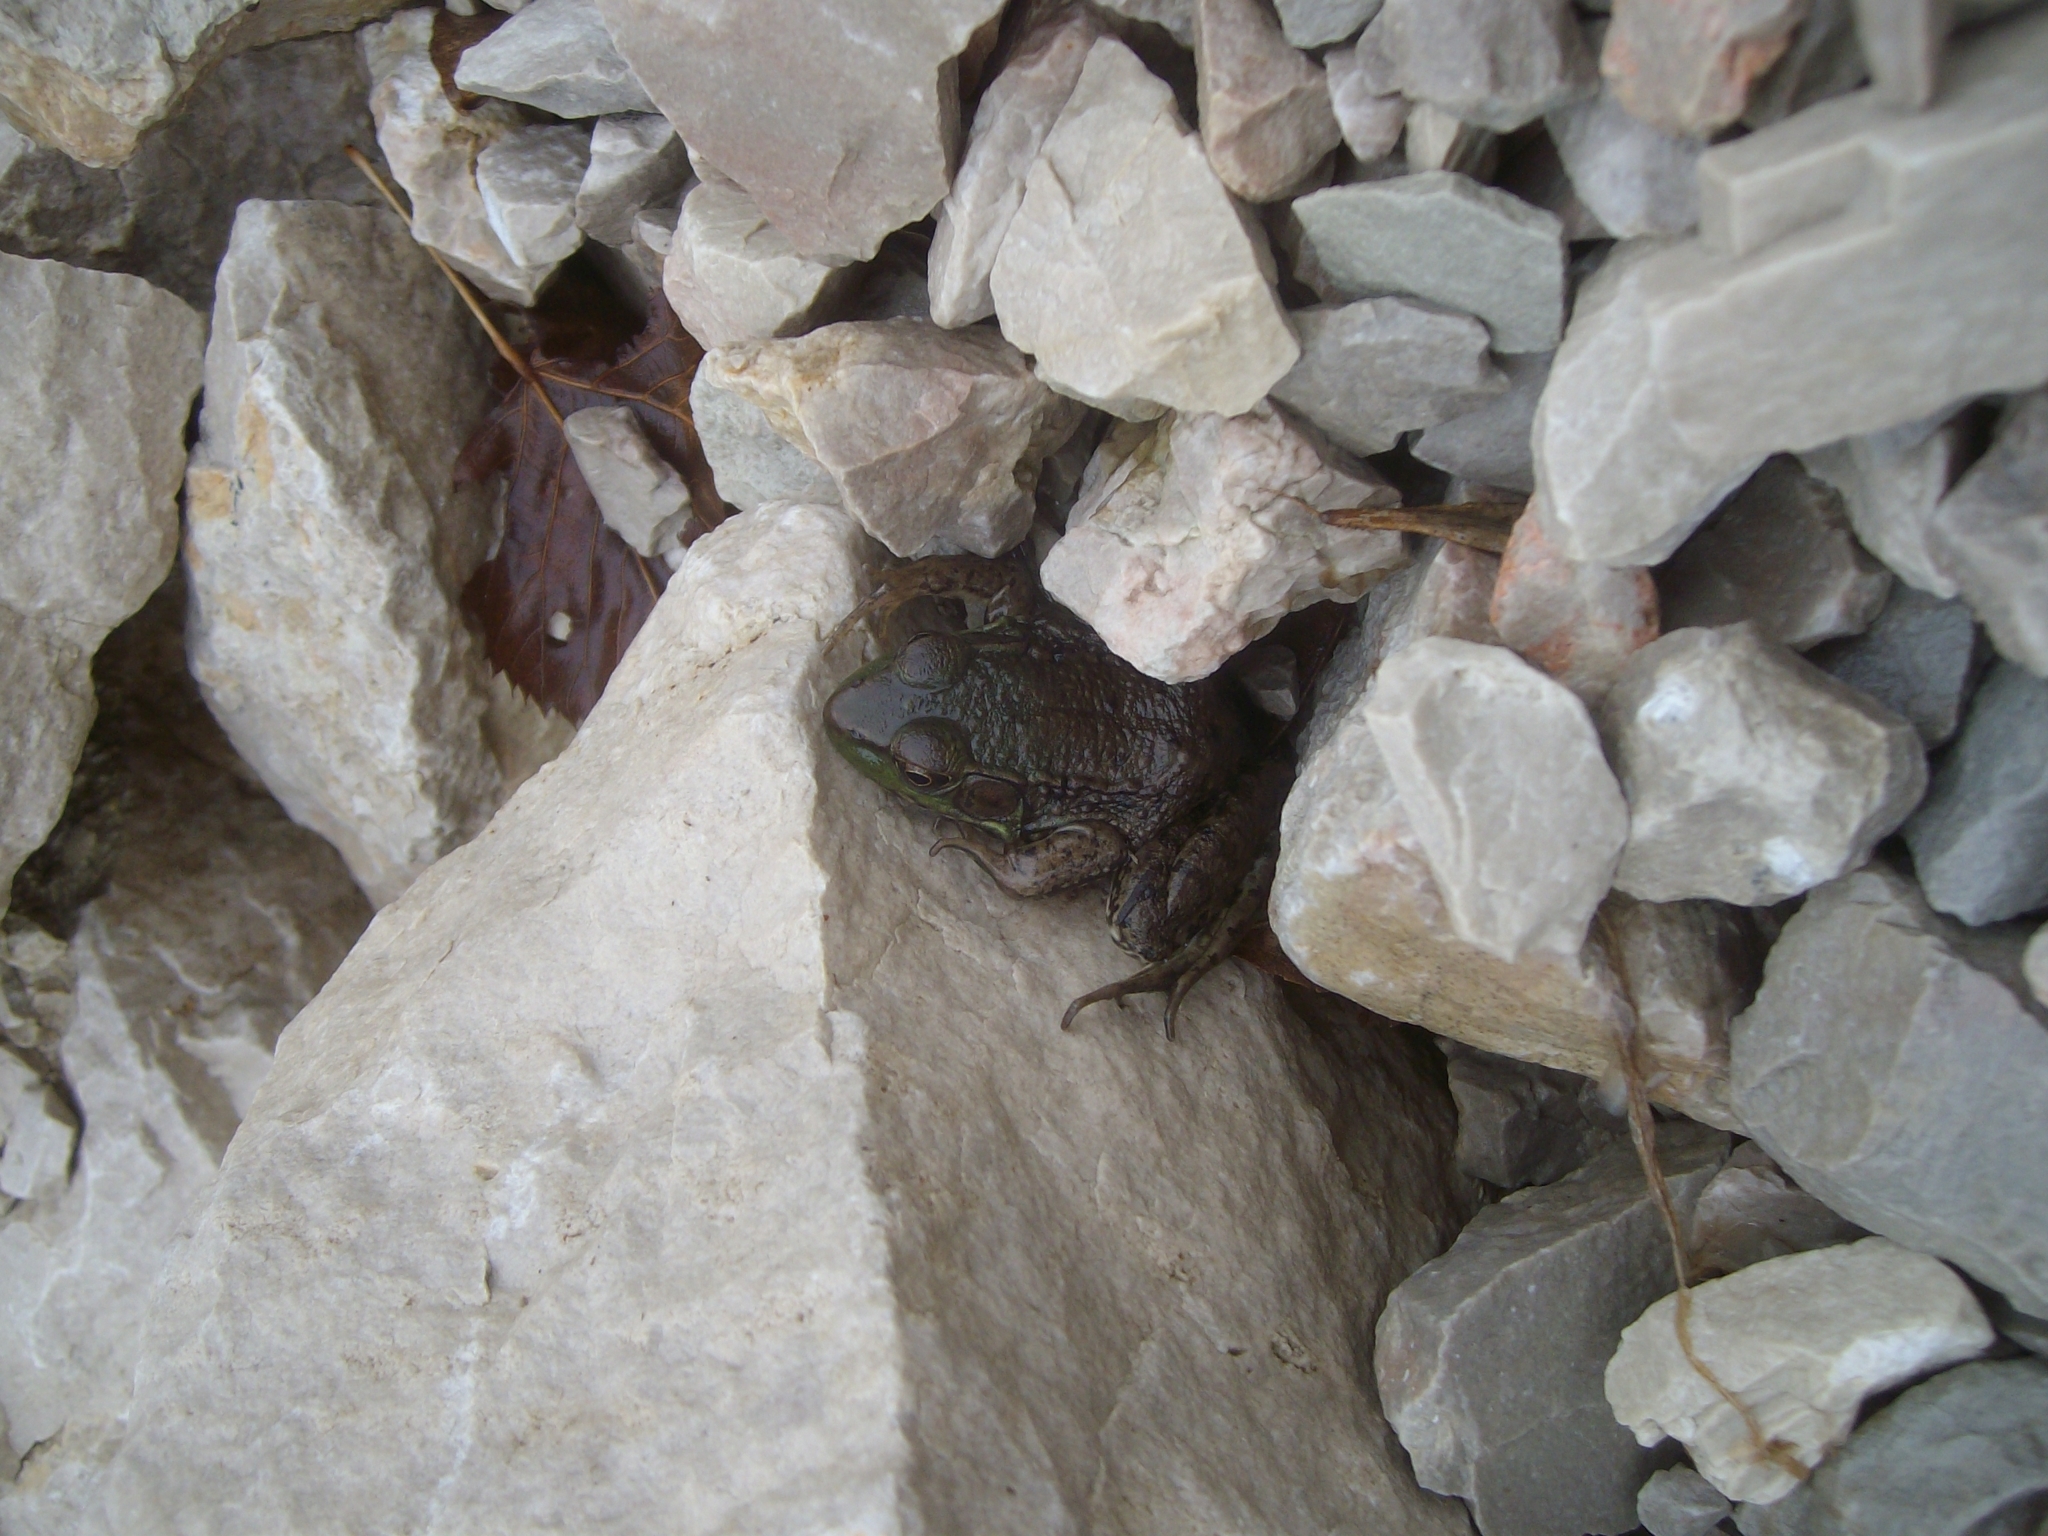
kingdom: Animalia
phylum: Chordata
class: Amphibia
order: Anura
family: Ranidae
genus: Lithobates
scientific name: Lithobates clamitans
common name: Green frog
